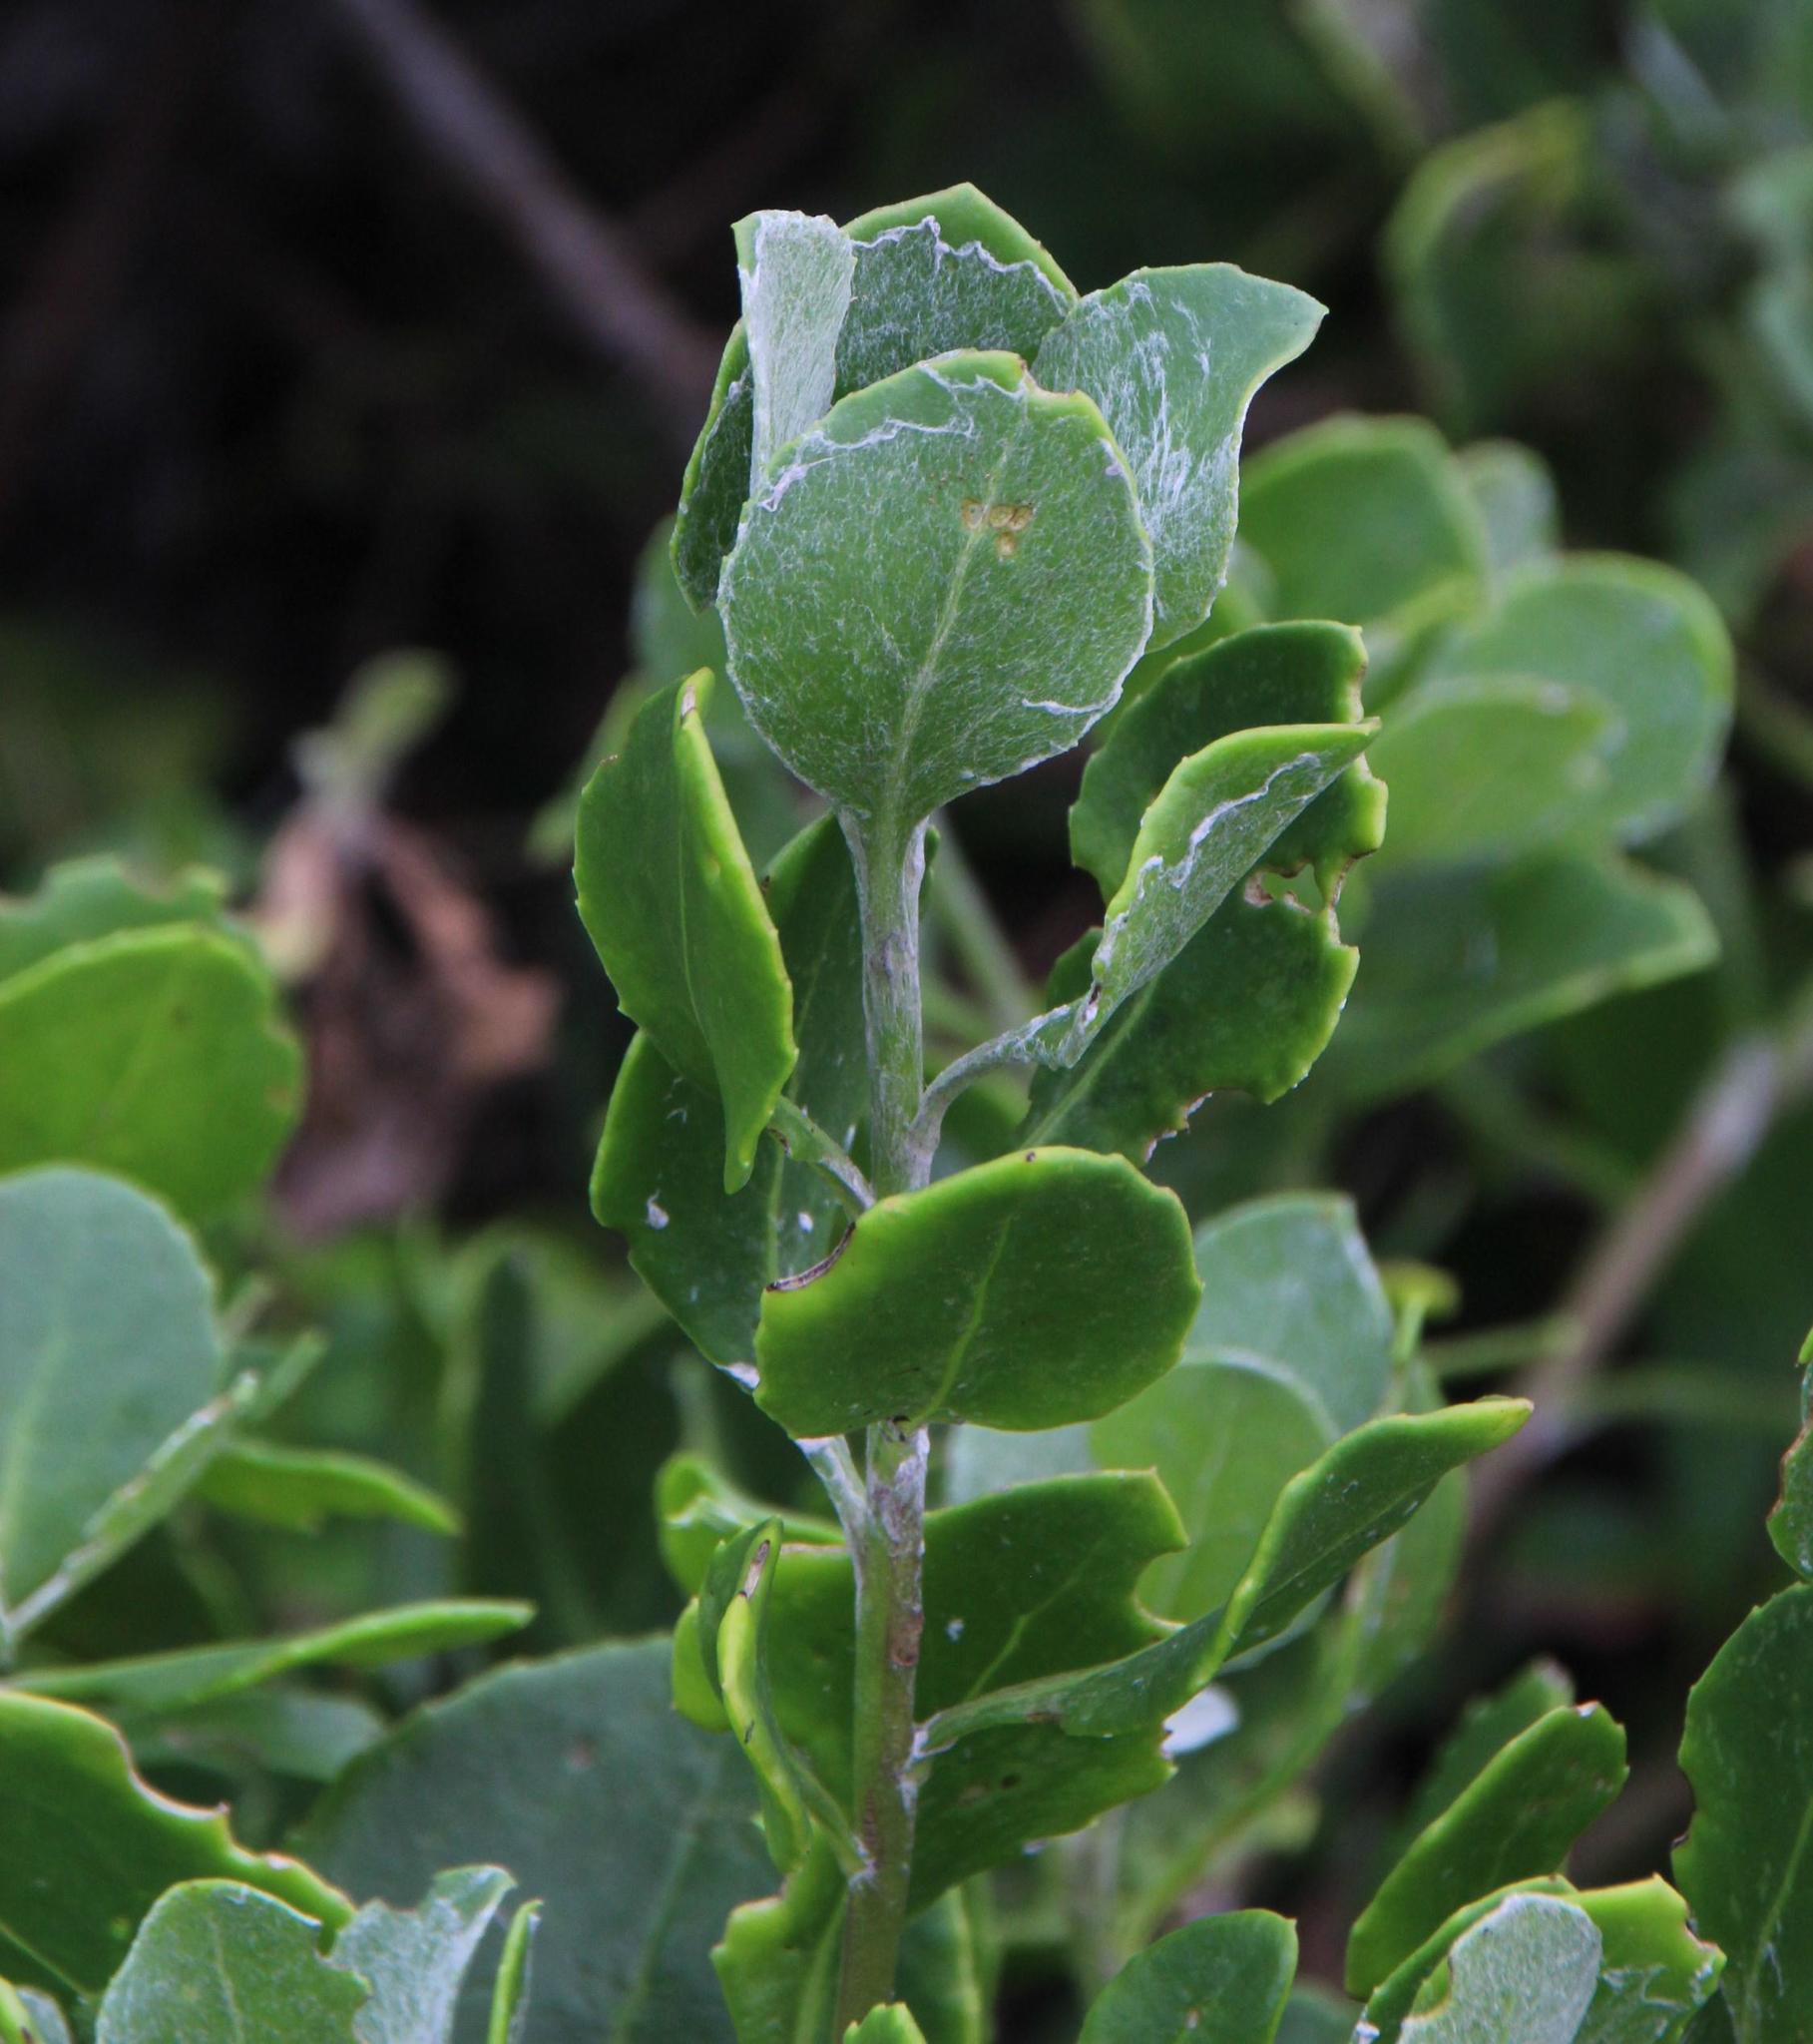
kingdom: Plantae
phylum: Tracheophyta
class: Magnoliopsida
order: Asterales
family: Asteraceae
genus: Osteospermum
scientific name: Osteospermum moniliferum
